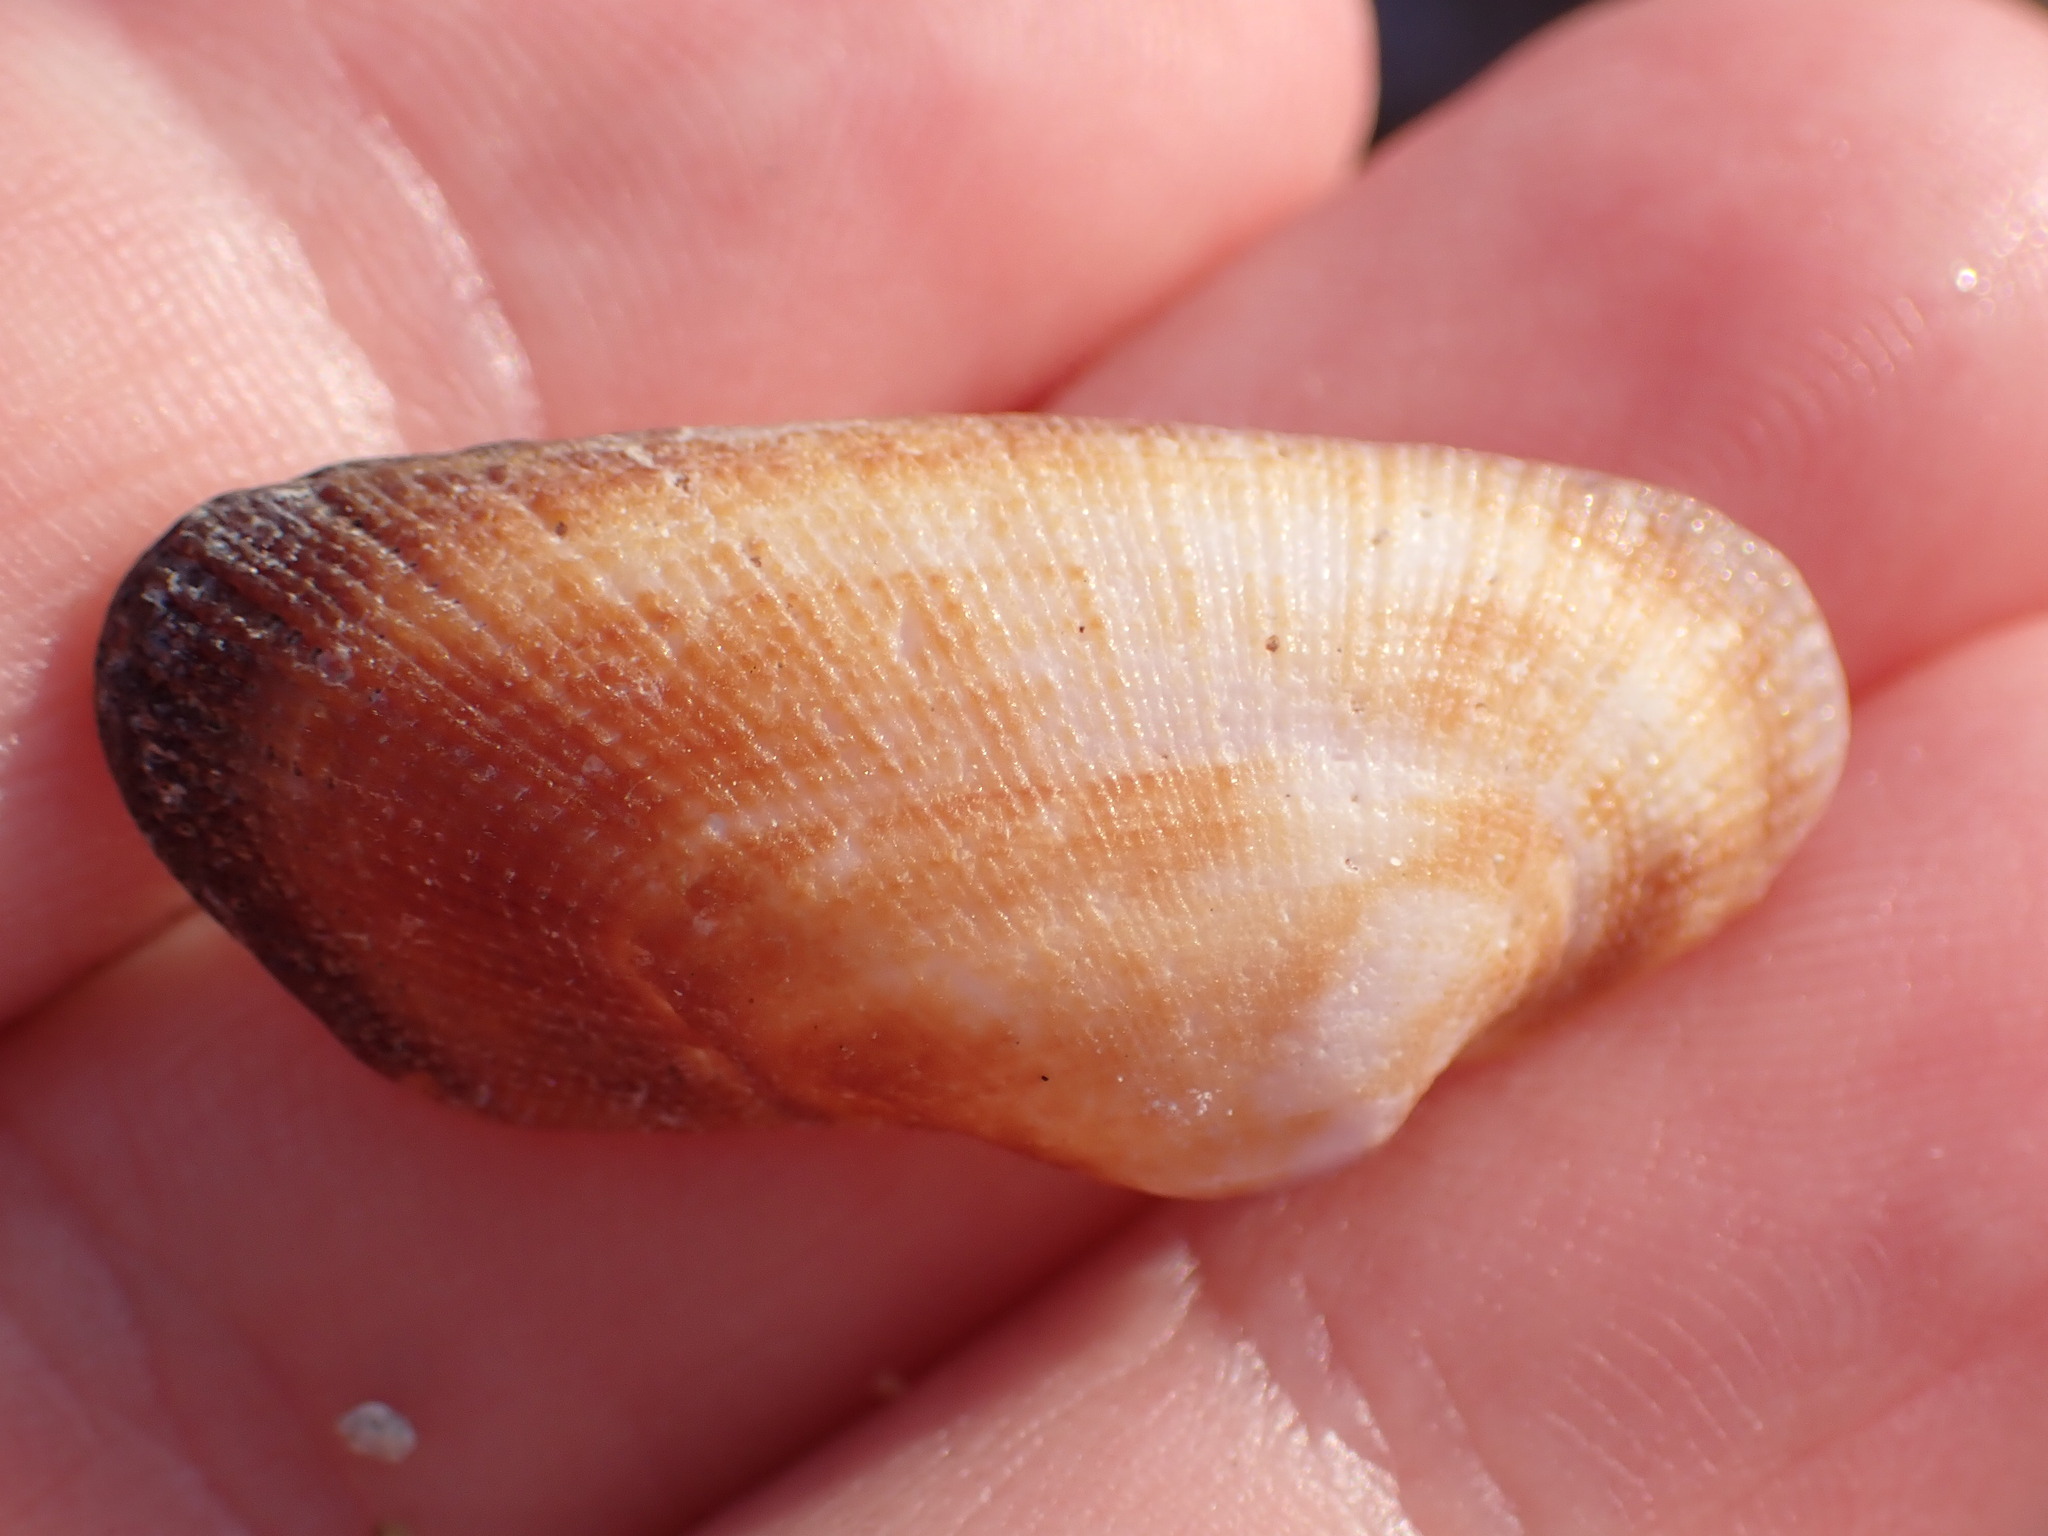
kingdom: Animalia
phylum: Mollusca
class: Bivalvia
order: Arcida
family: Arcidae
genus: Barbatia
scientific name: Barbatia barbata
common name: Bearded ark
